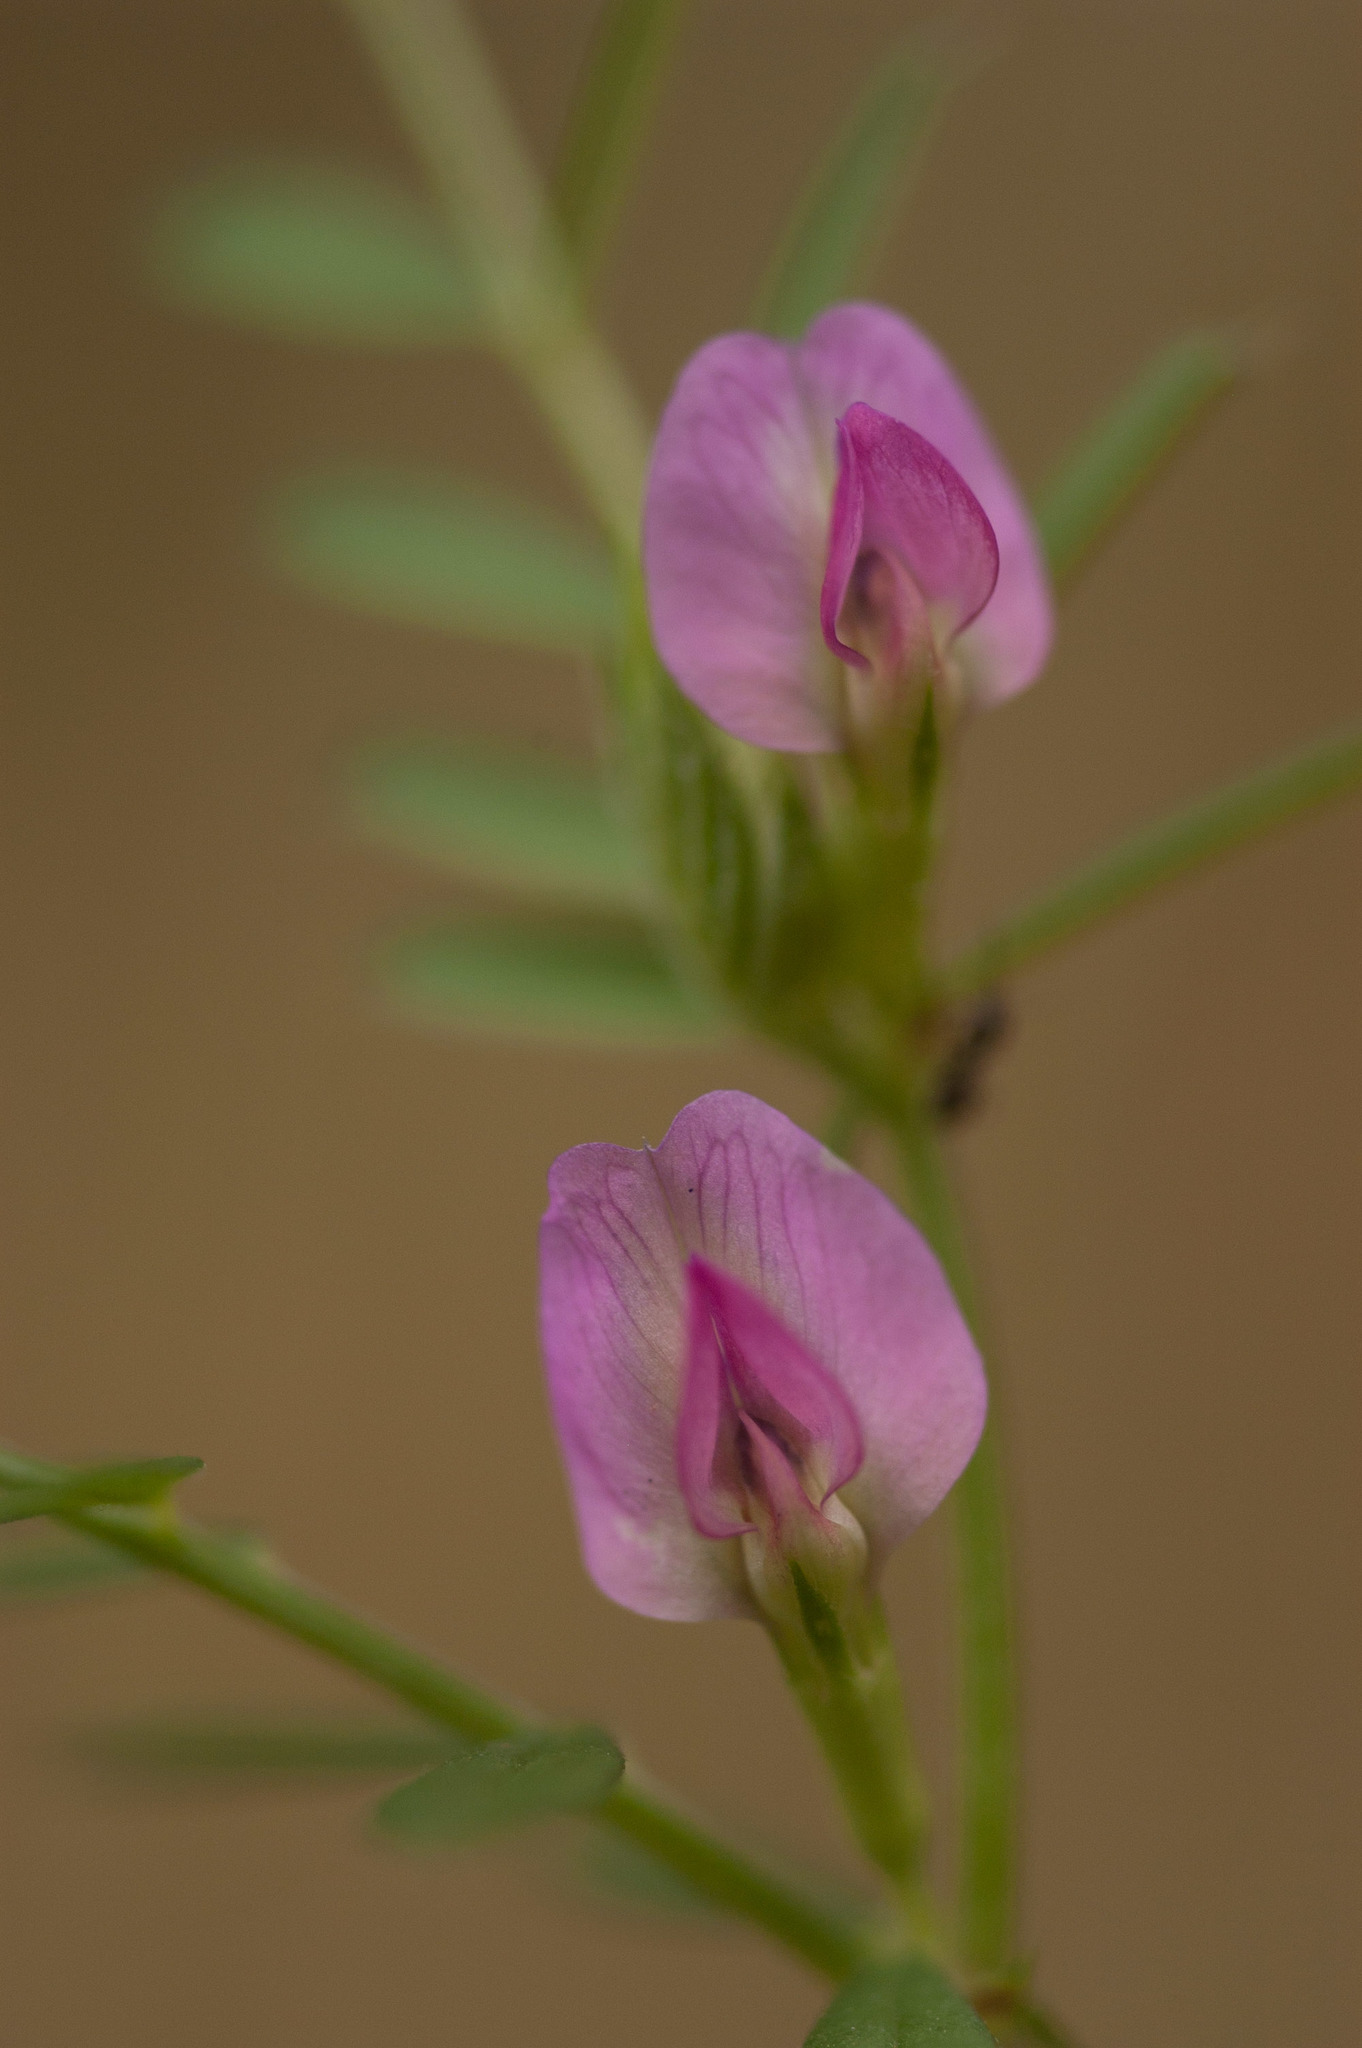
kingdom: Plantae
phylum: Tracheophyta
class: Magnoliopsida
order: Fabales
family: Fabaceae
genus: Vicia
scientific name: Vicia sativa
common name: Garden vetch
